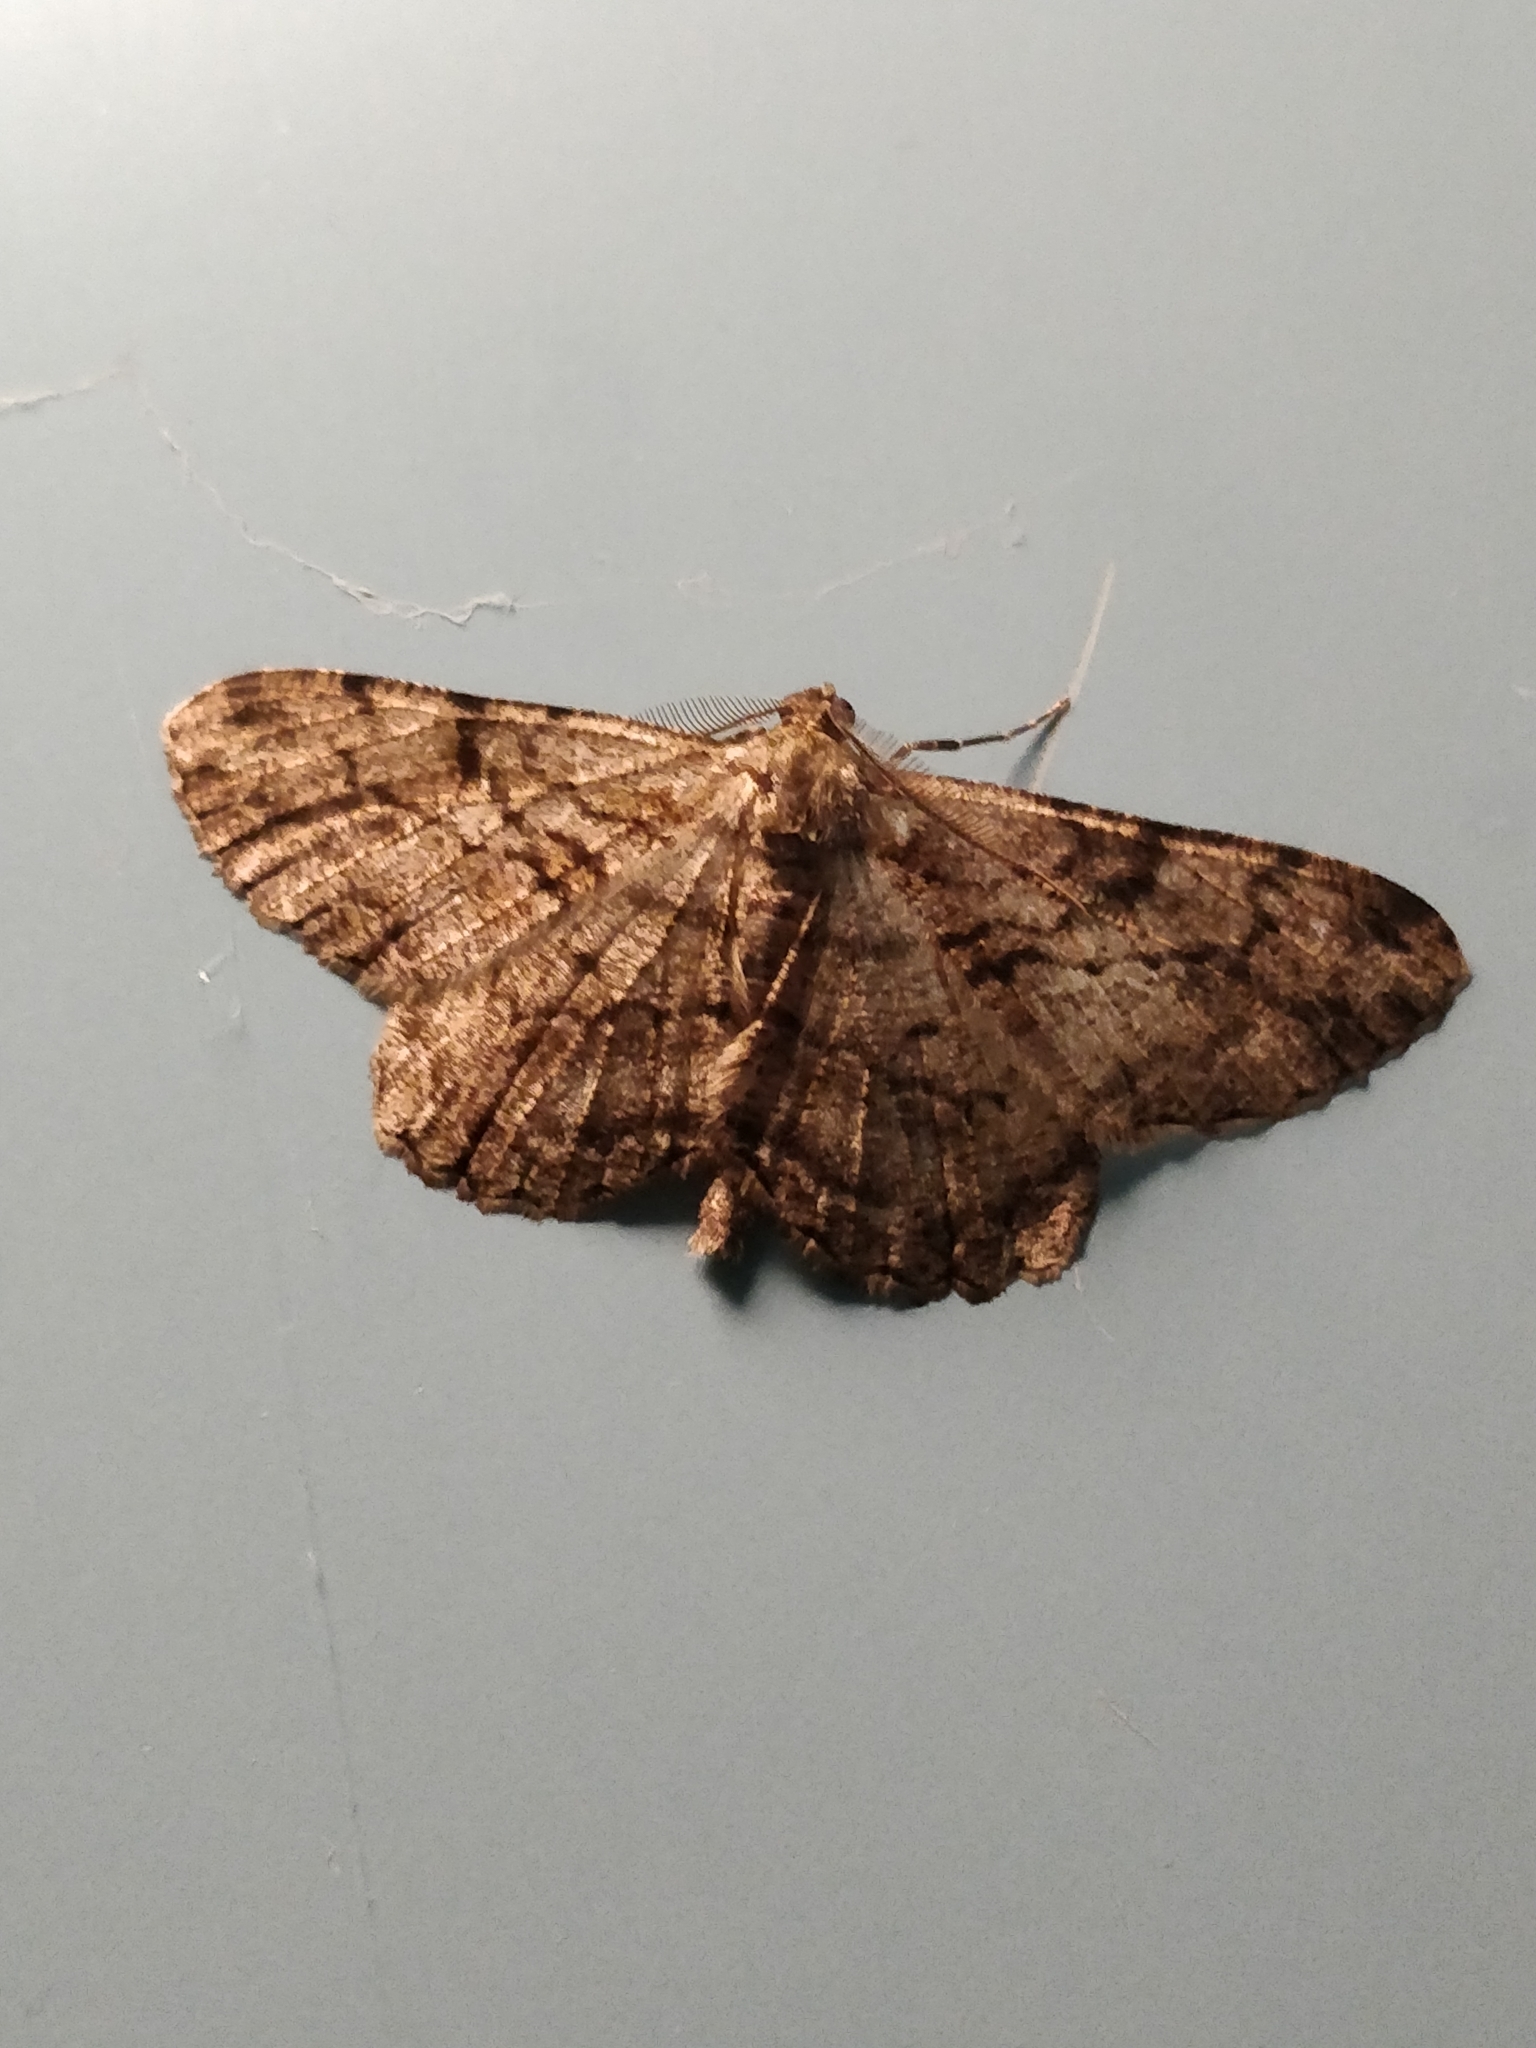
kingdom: Animalia
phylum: Arthropoda
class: Insecta
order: Lepidoptera
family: Geometridae
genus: Peribatodes
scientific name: Peribatodes rhomboidaria
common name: Willow beauty
